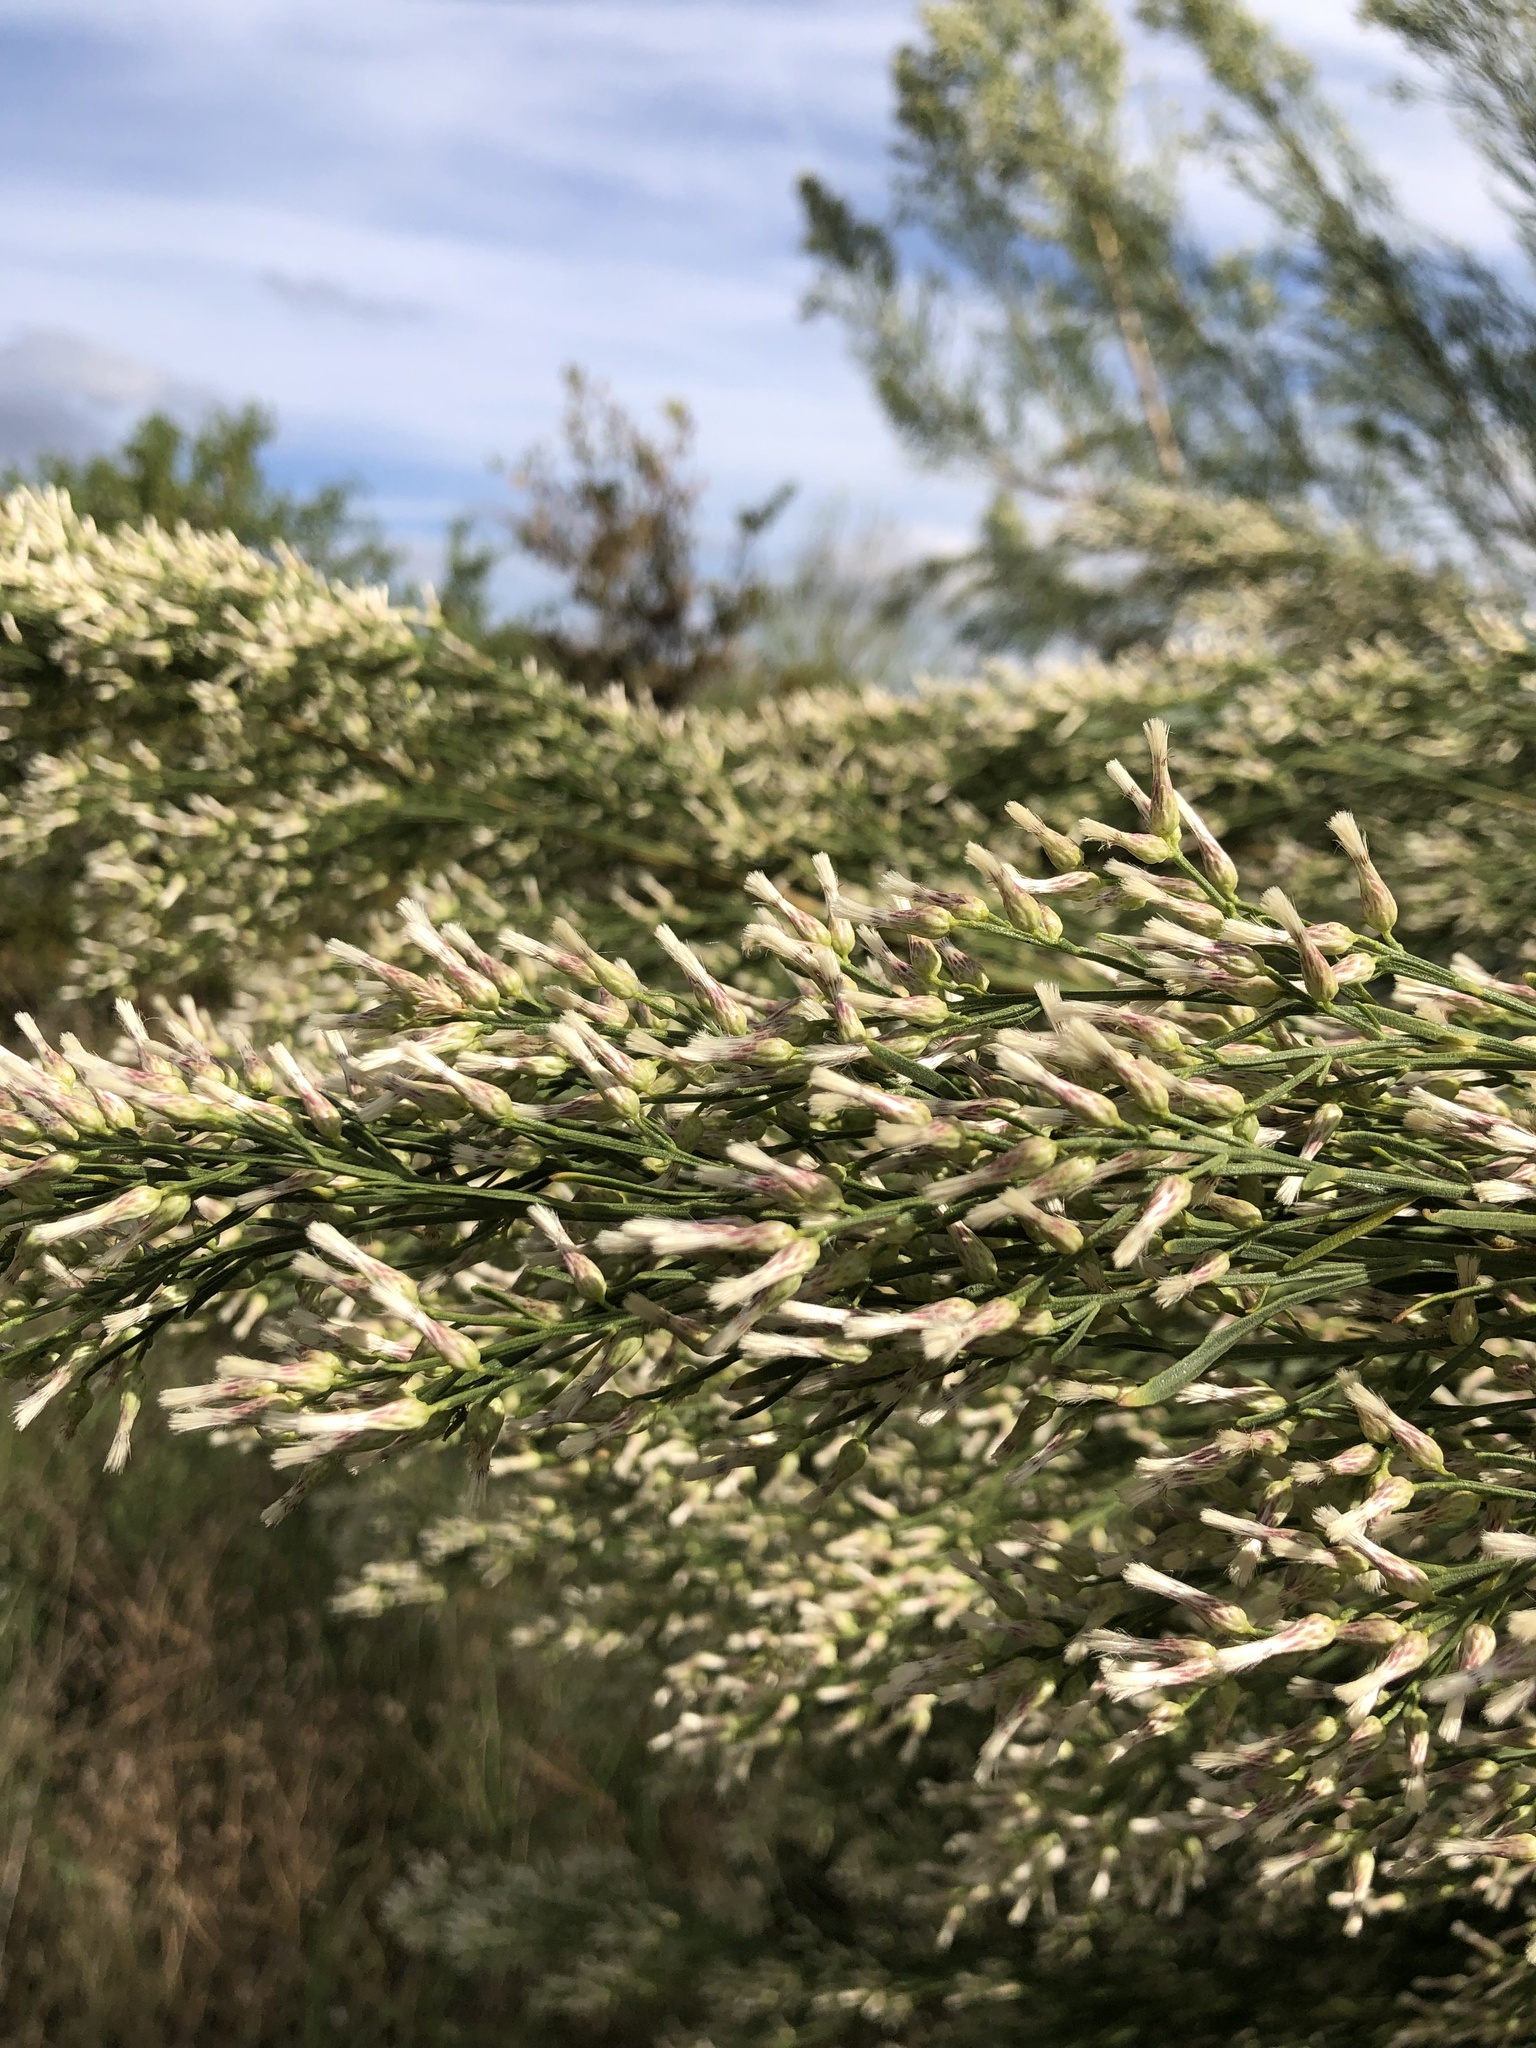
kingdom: Plantae
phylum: Tracheophyta
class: Magnoliopsida
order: Asterales
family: Asteraceae
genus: Baccharis
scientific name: Baccharis neglecta
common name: Roosevelt-weed
